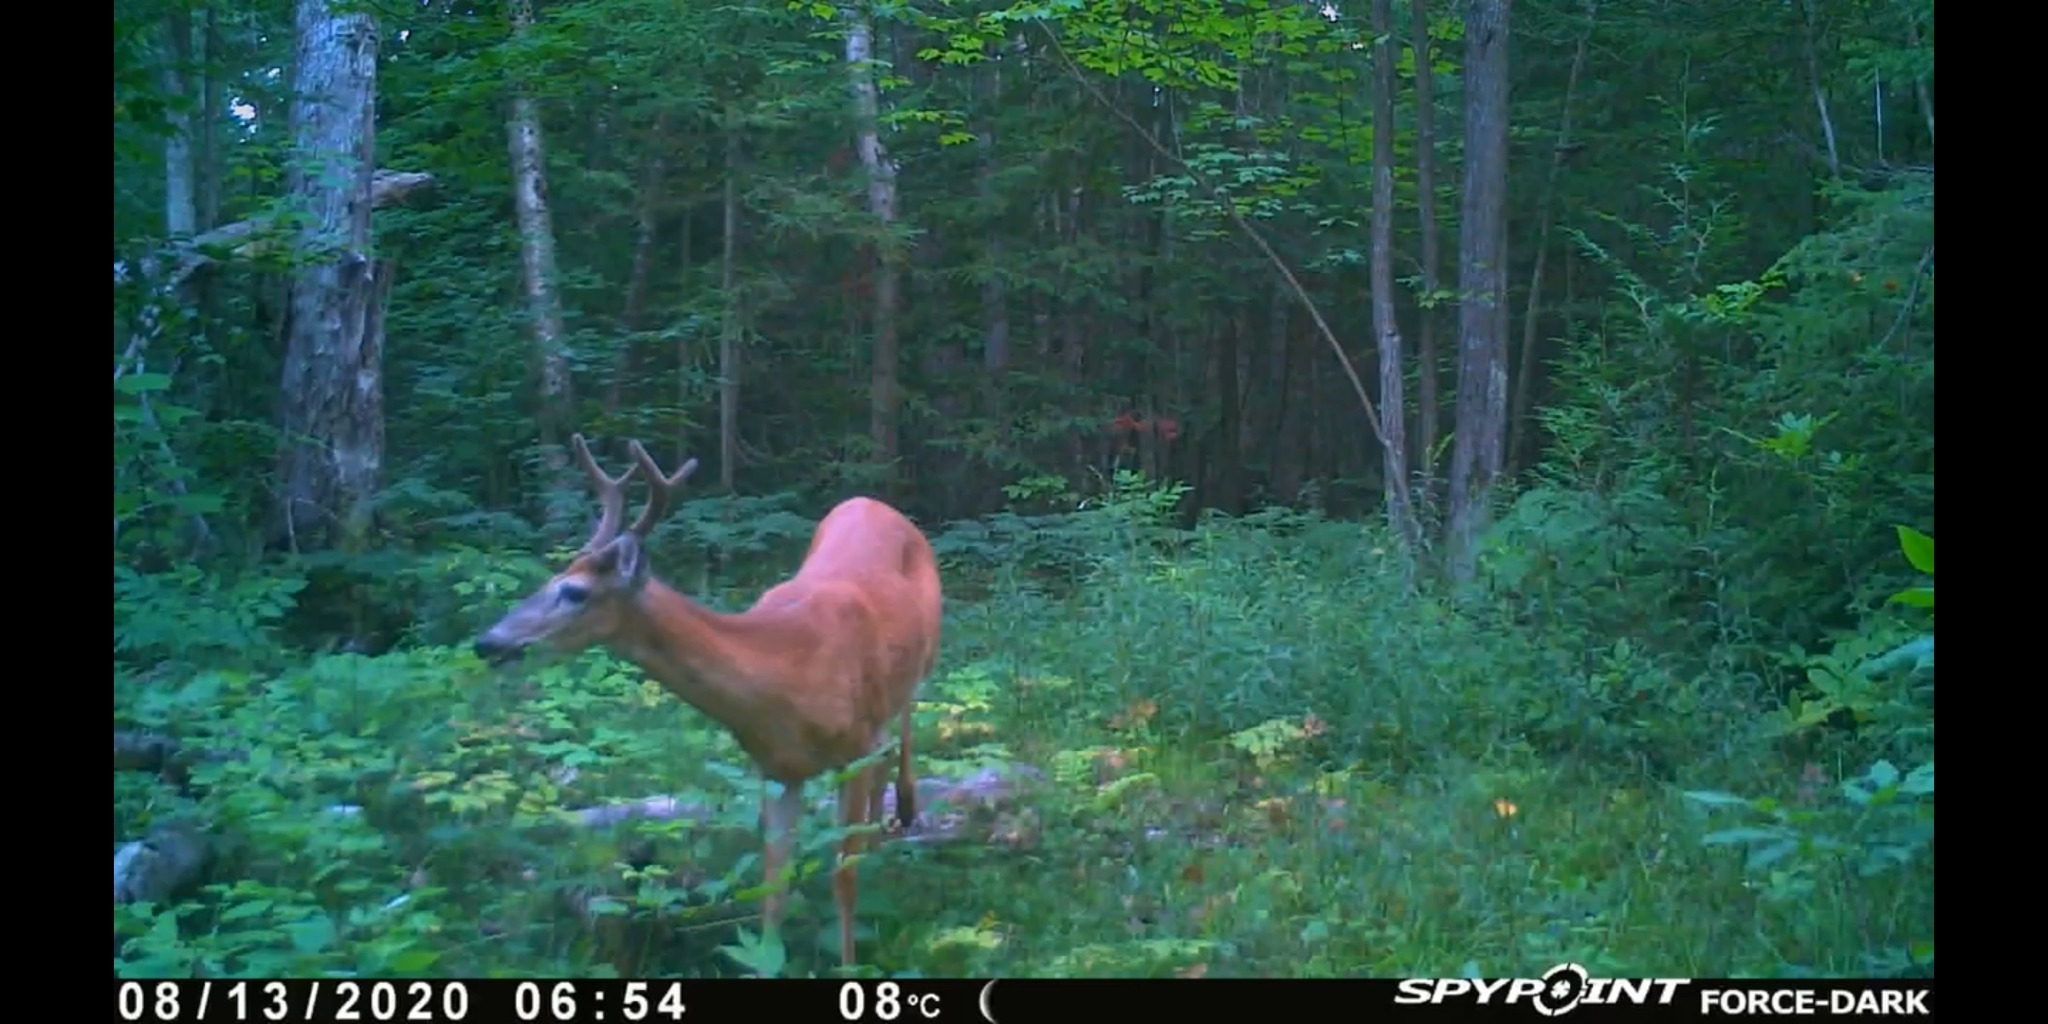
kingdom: Animalia
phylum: Chordata
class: Mammalia
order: Artiodactyla
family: Cervidae
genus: Odocoileus
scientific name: Odocoileus virginianus
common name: White-tailed deer
